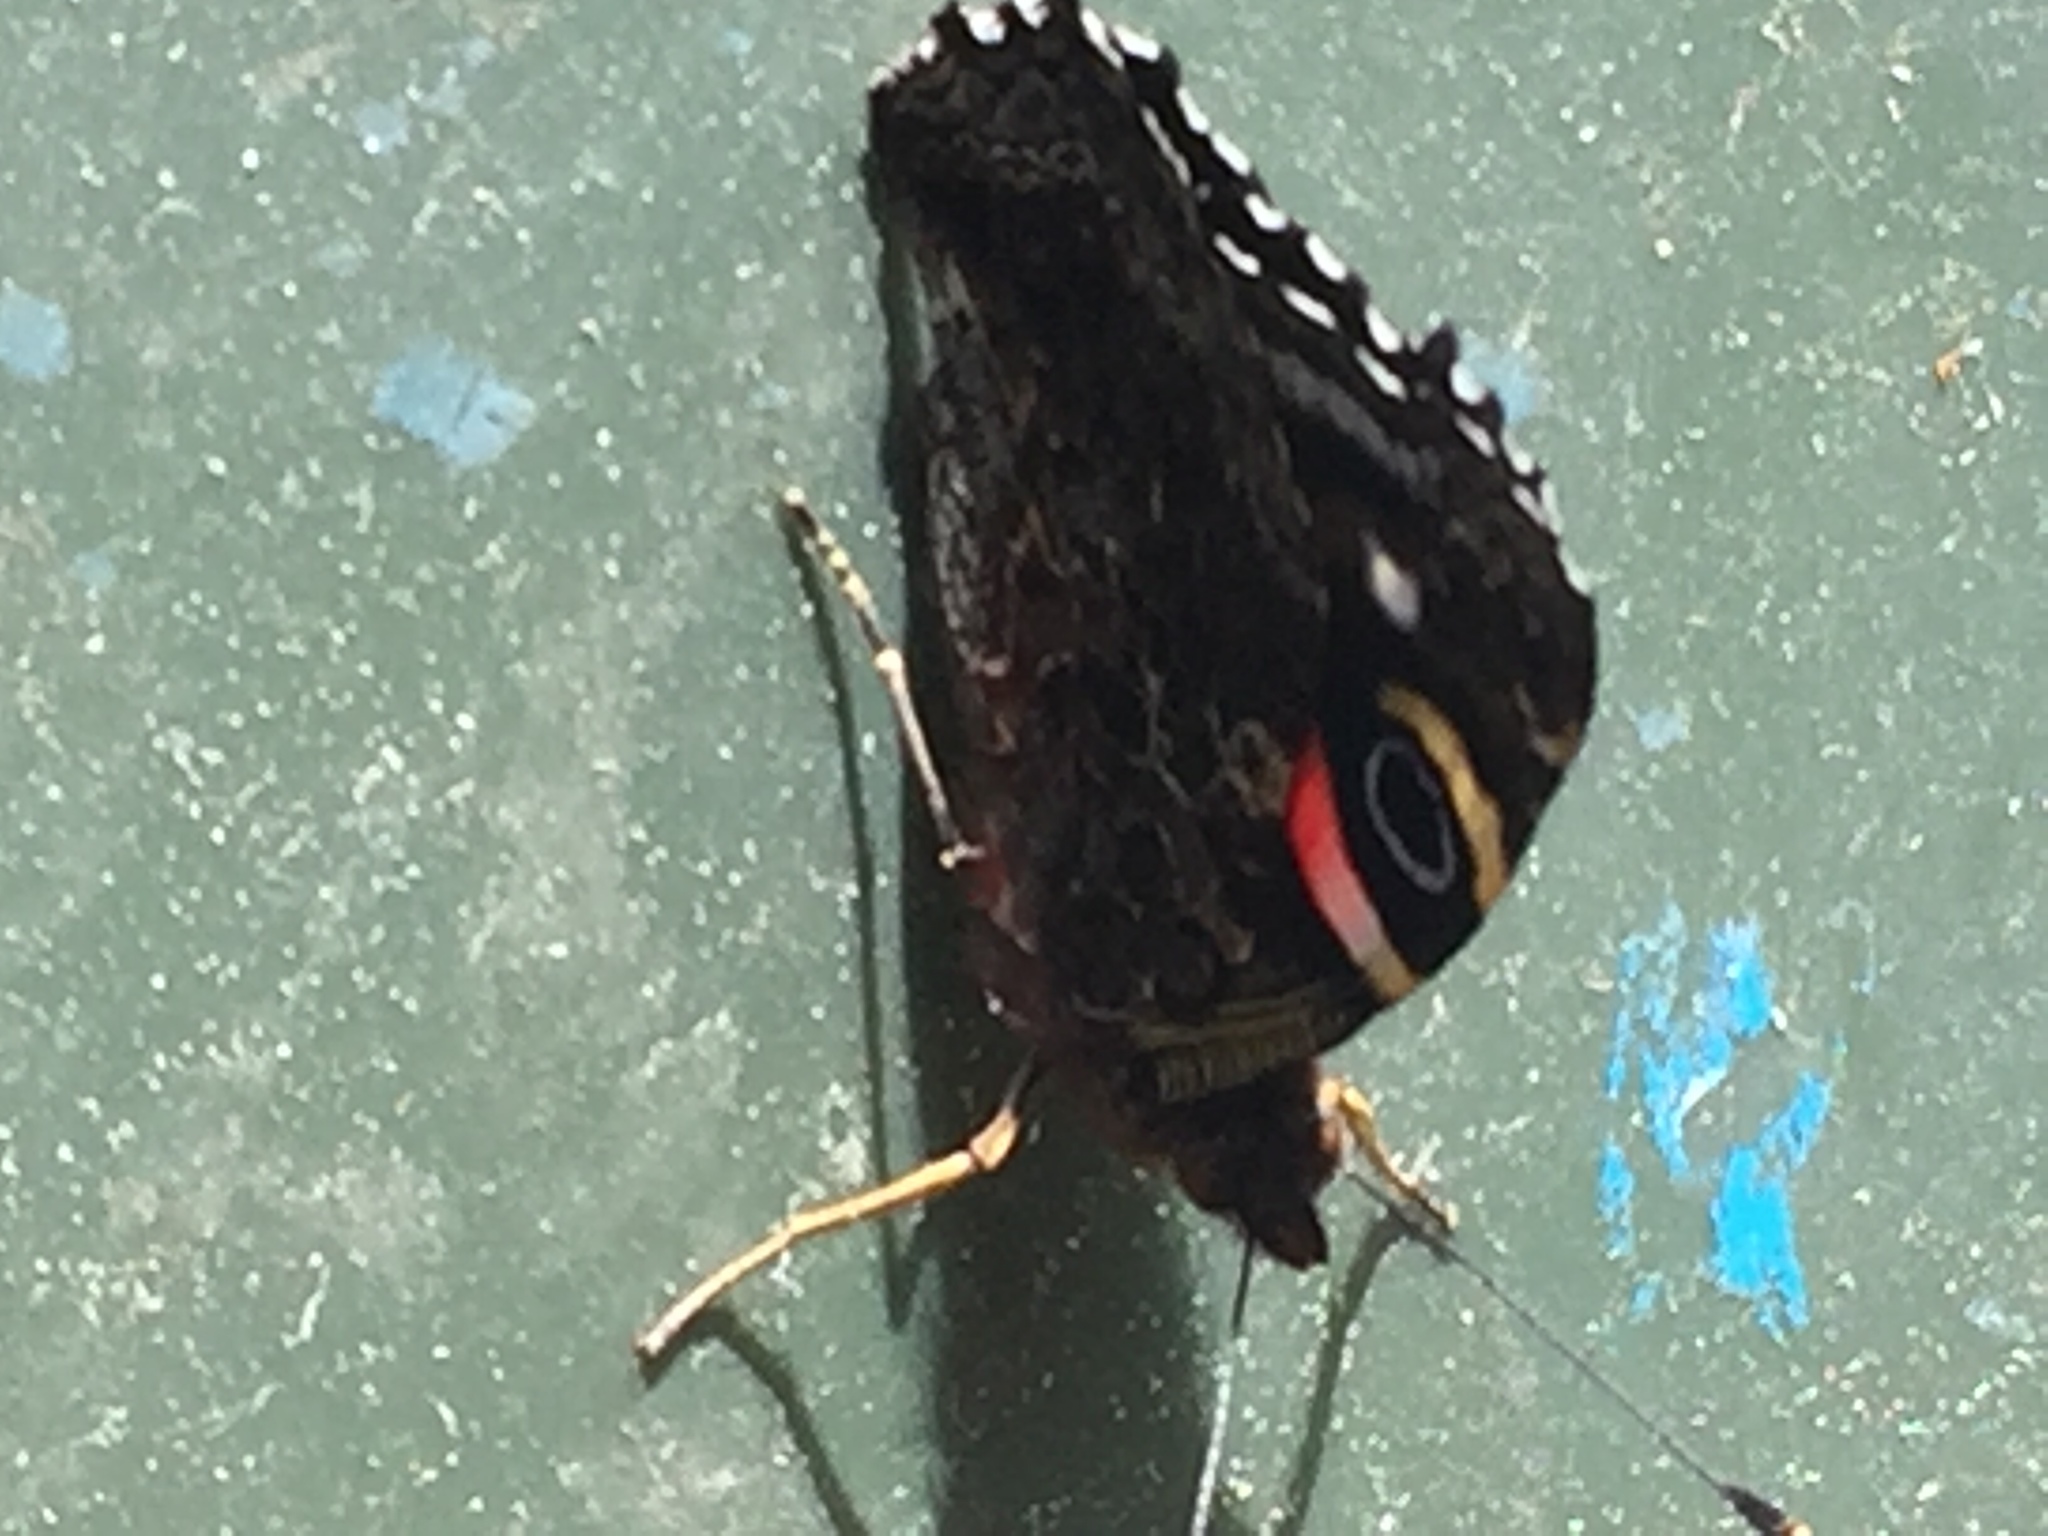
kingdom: Animalia
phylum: Arthropoda
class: Insecta
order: Lepidoptera
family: Nymphalidae
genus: Vanessa
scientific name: Vanessa gonerilla
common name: New zealand red admiral
